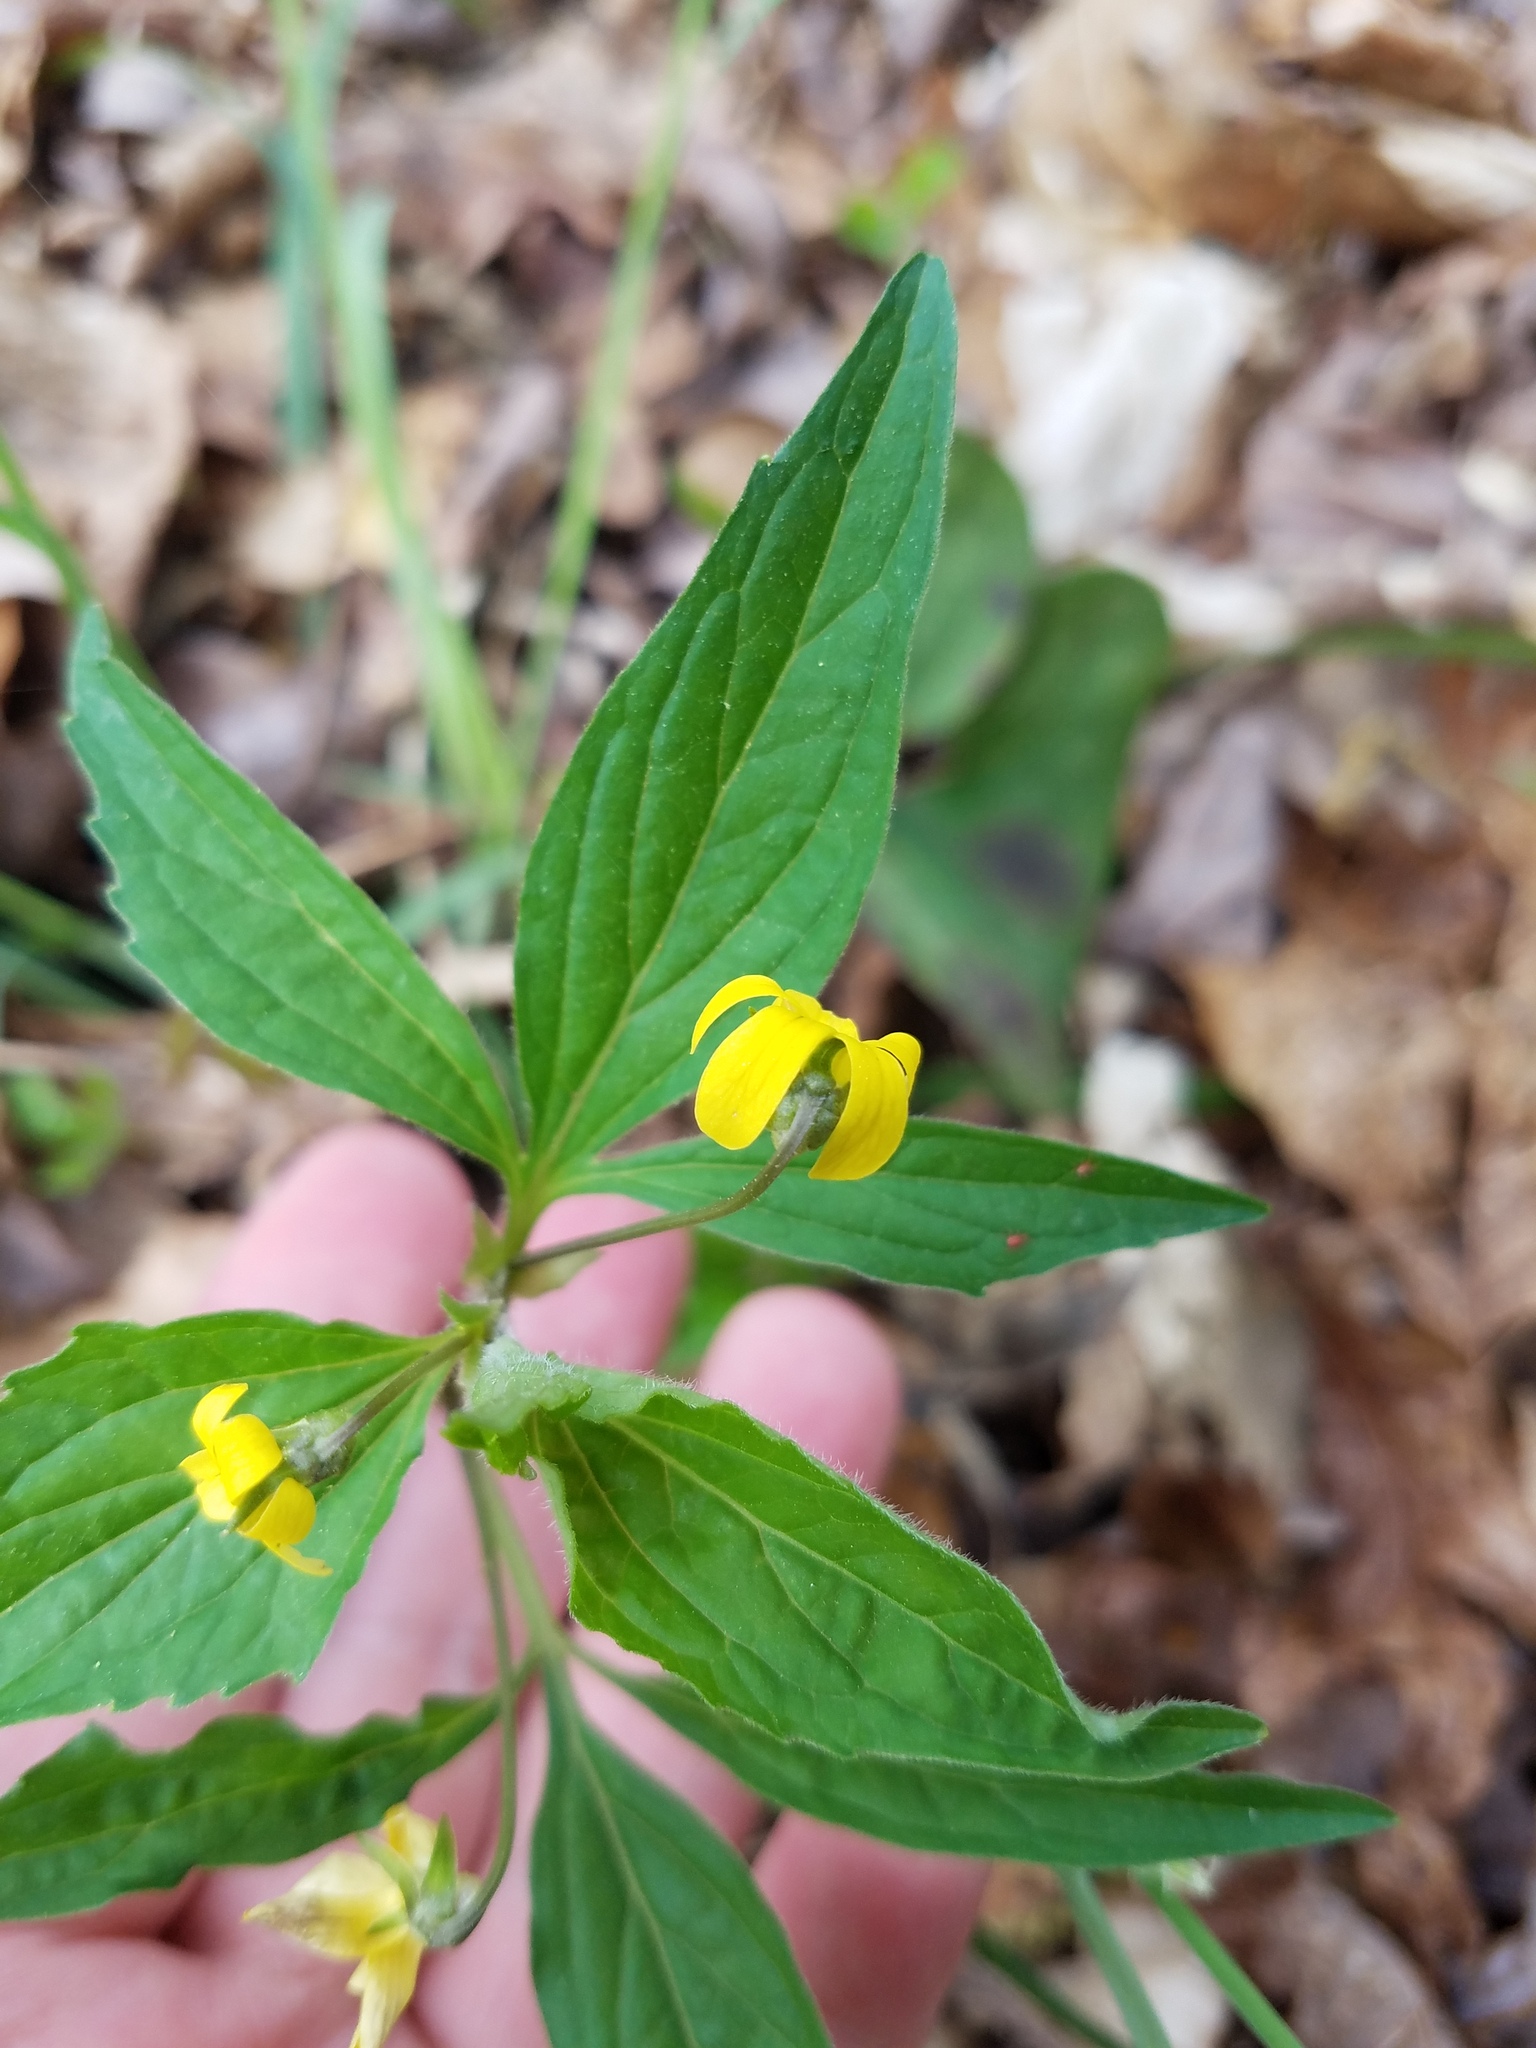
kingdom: Plantae
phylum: Tracheophyta
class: Magnoliopsida
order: Malpighiales
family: Violaceae
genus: Viola
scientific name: Viola tripartita
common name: Three-part violet
